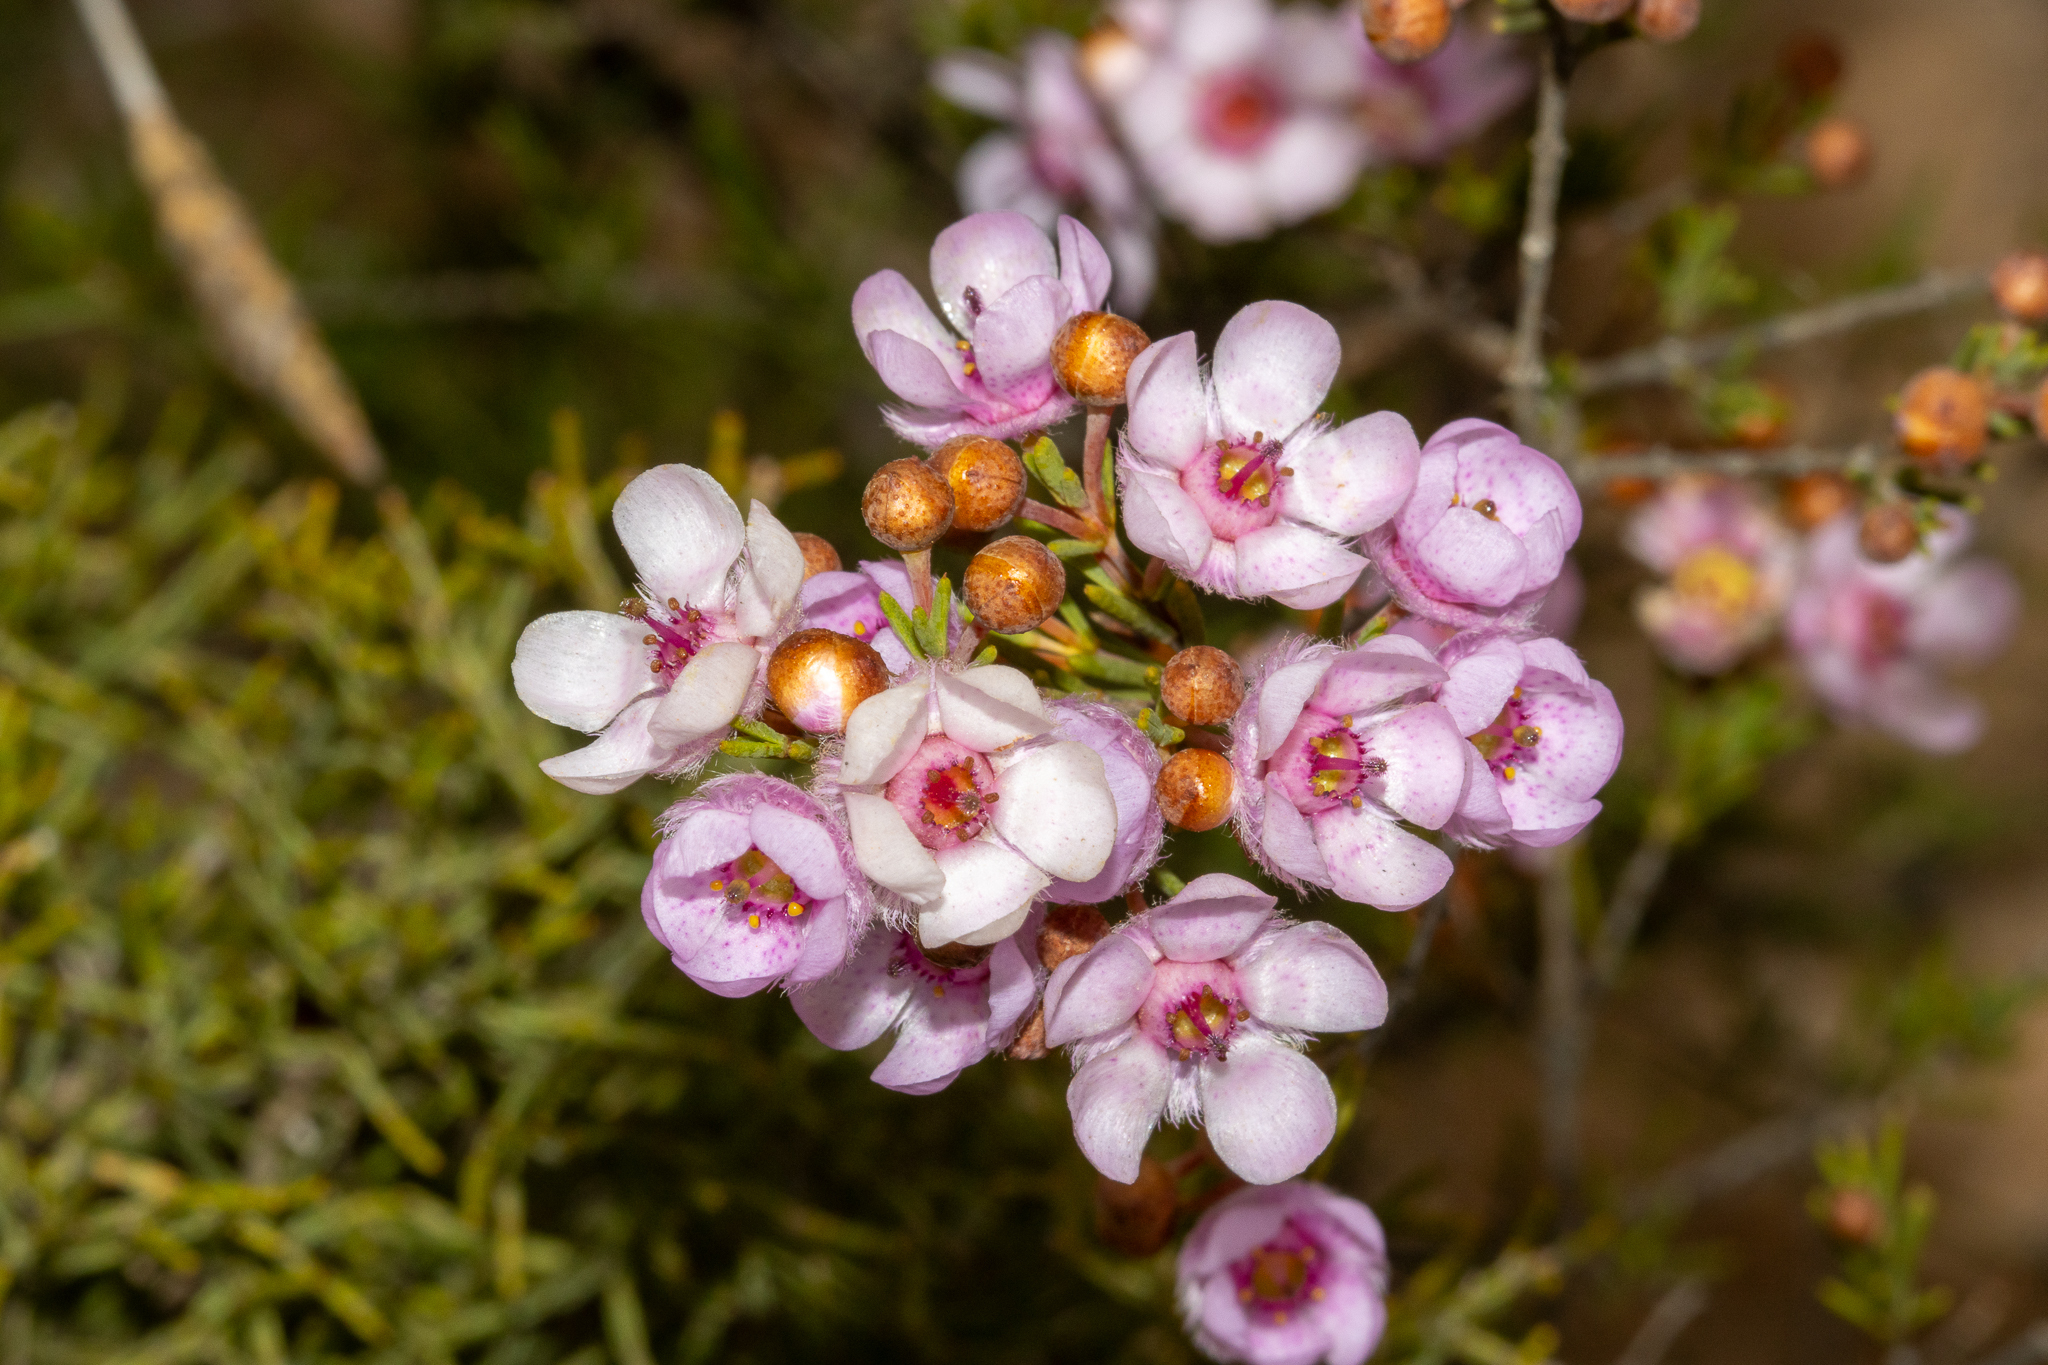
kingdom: Plantae
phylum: Tracheophyta
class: Magnoliopsida
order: Myrtales
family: Myrtaceae
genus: Verticordia
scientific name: Verticordia picta
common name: Painted feather-flower
